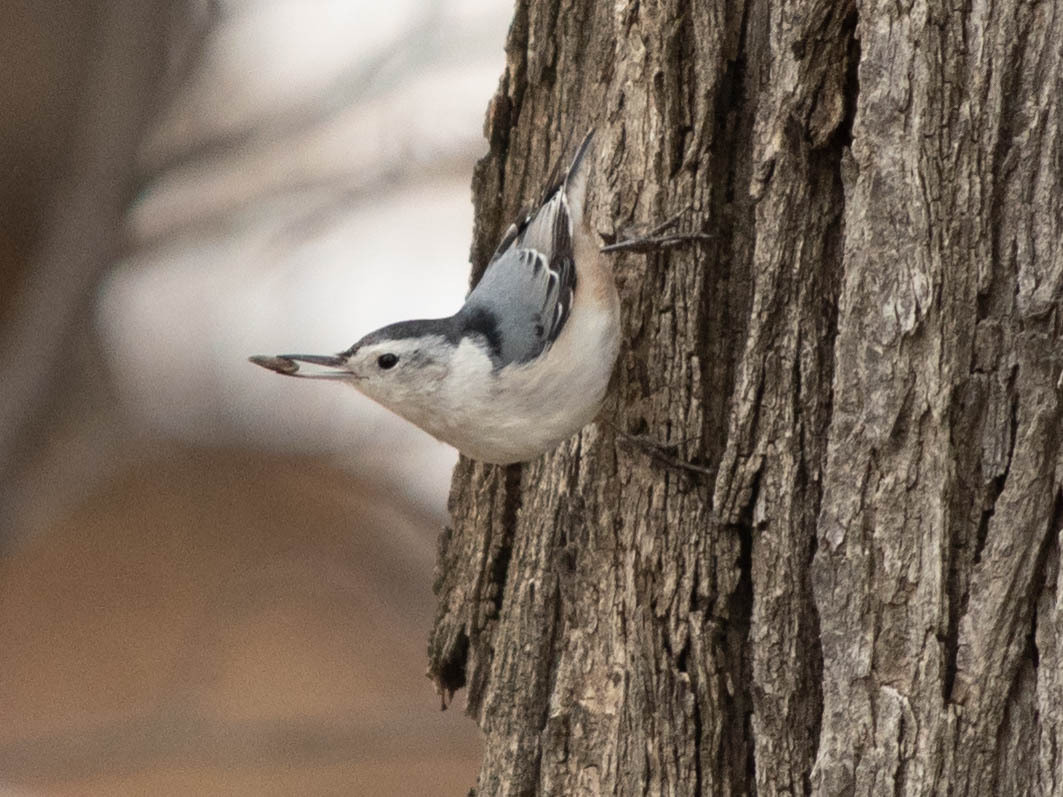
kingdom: Animalia
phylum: Chordata
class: Aves
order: Passeriformes
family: Sittidae
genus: Sitta
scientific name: Sitta carolinensis
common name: White-breasted nuthatch
